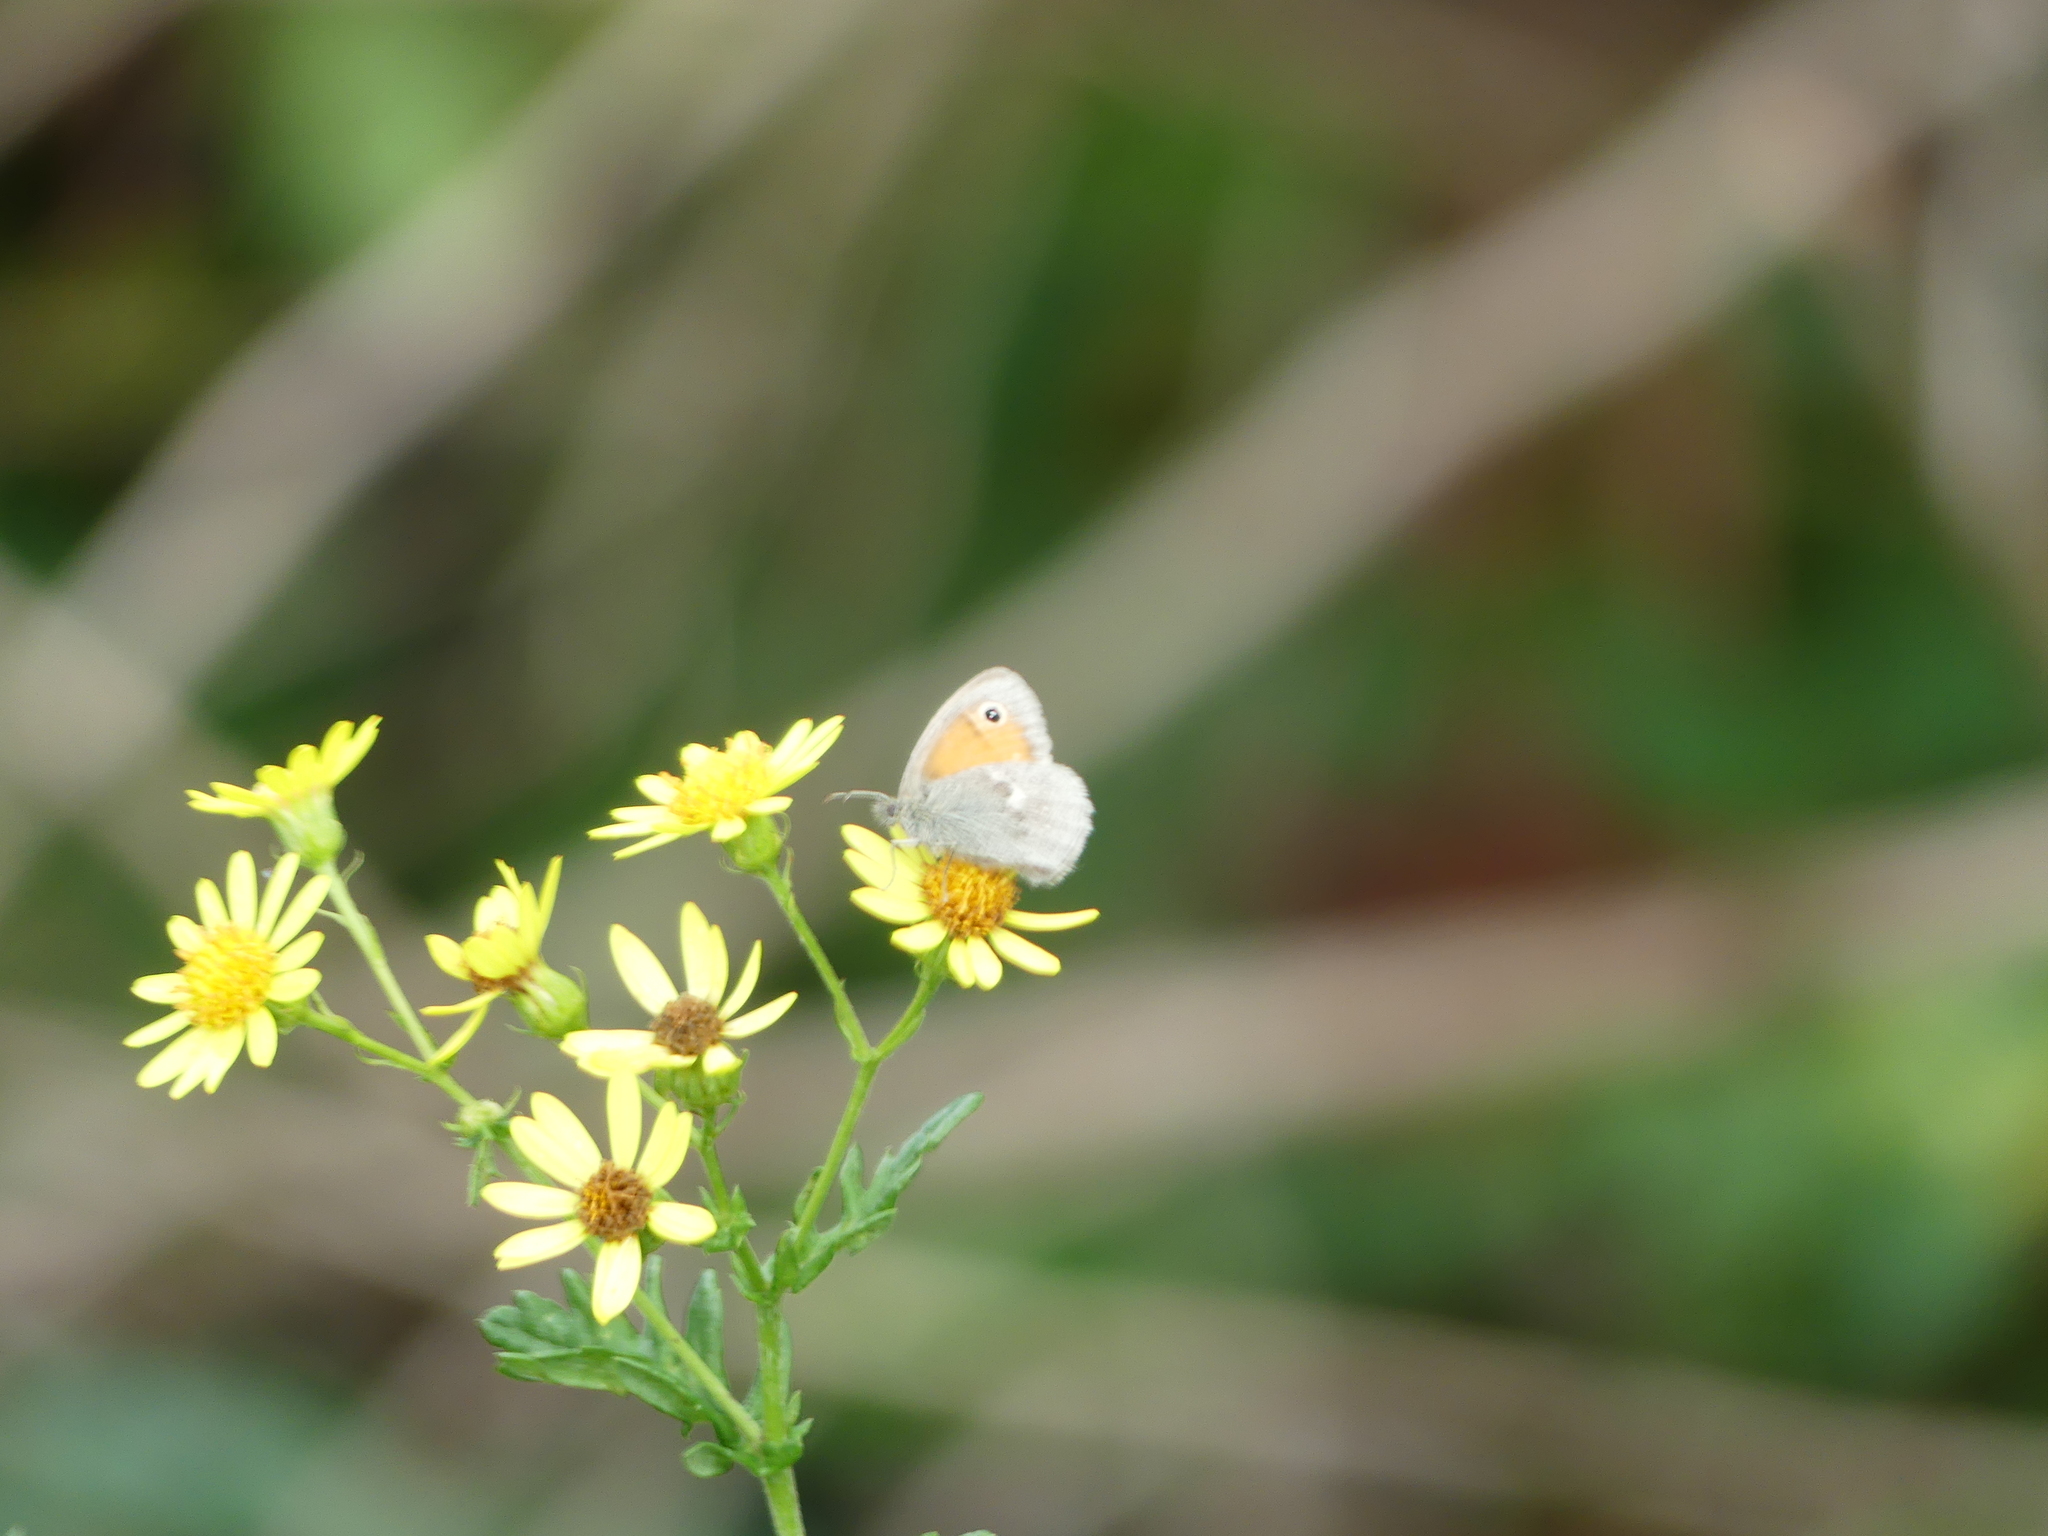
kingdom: Animalia
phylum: Arthropoda
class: Insecta
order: Lepidoptera
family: Nymphalidae
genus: Coenonympha
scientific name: Coenonympha pamphilus
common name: Small heath
